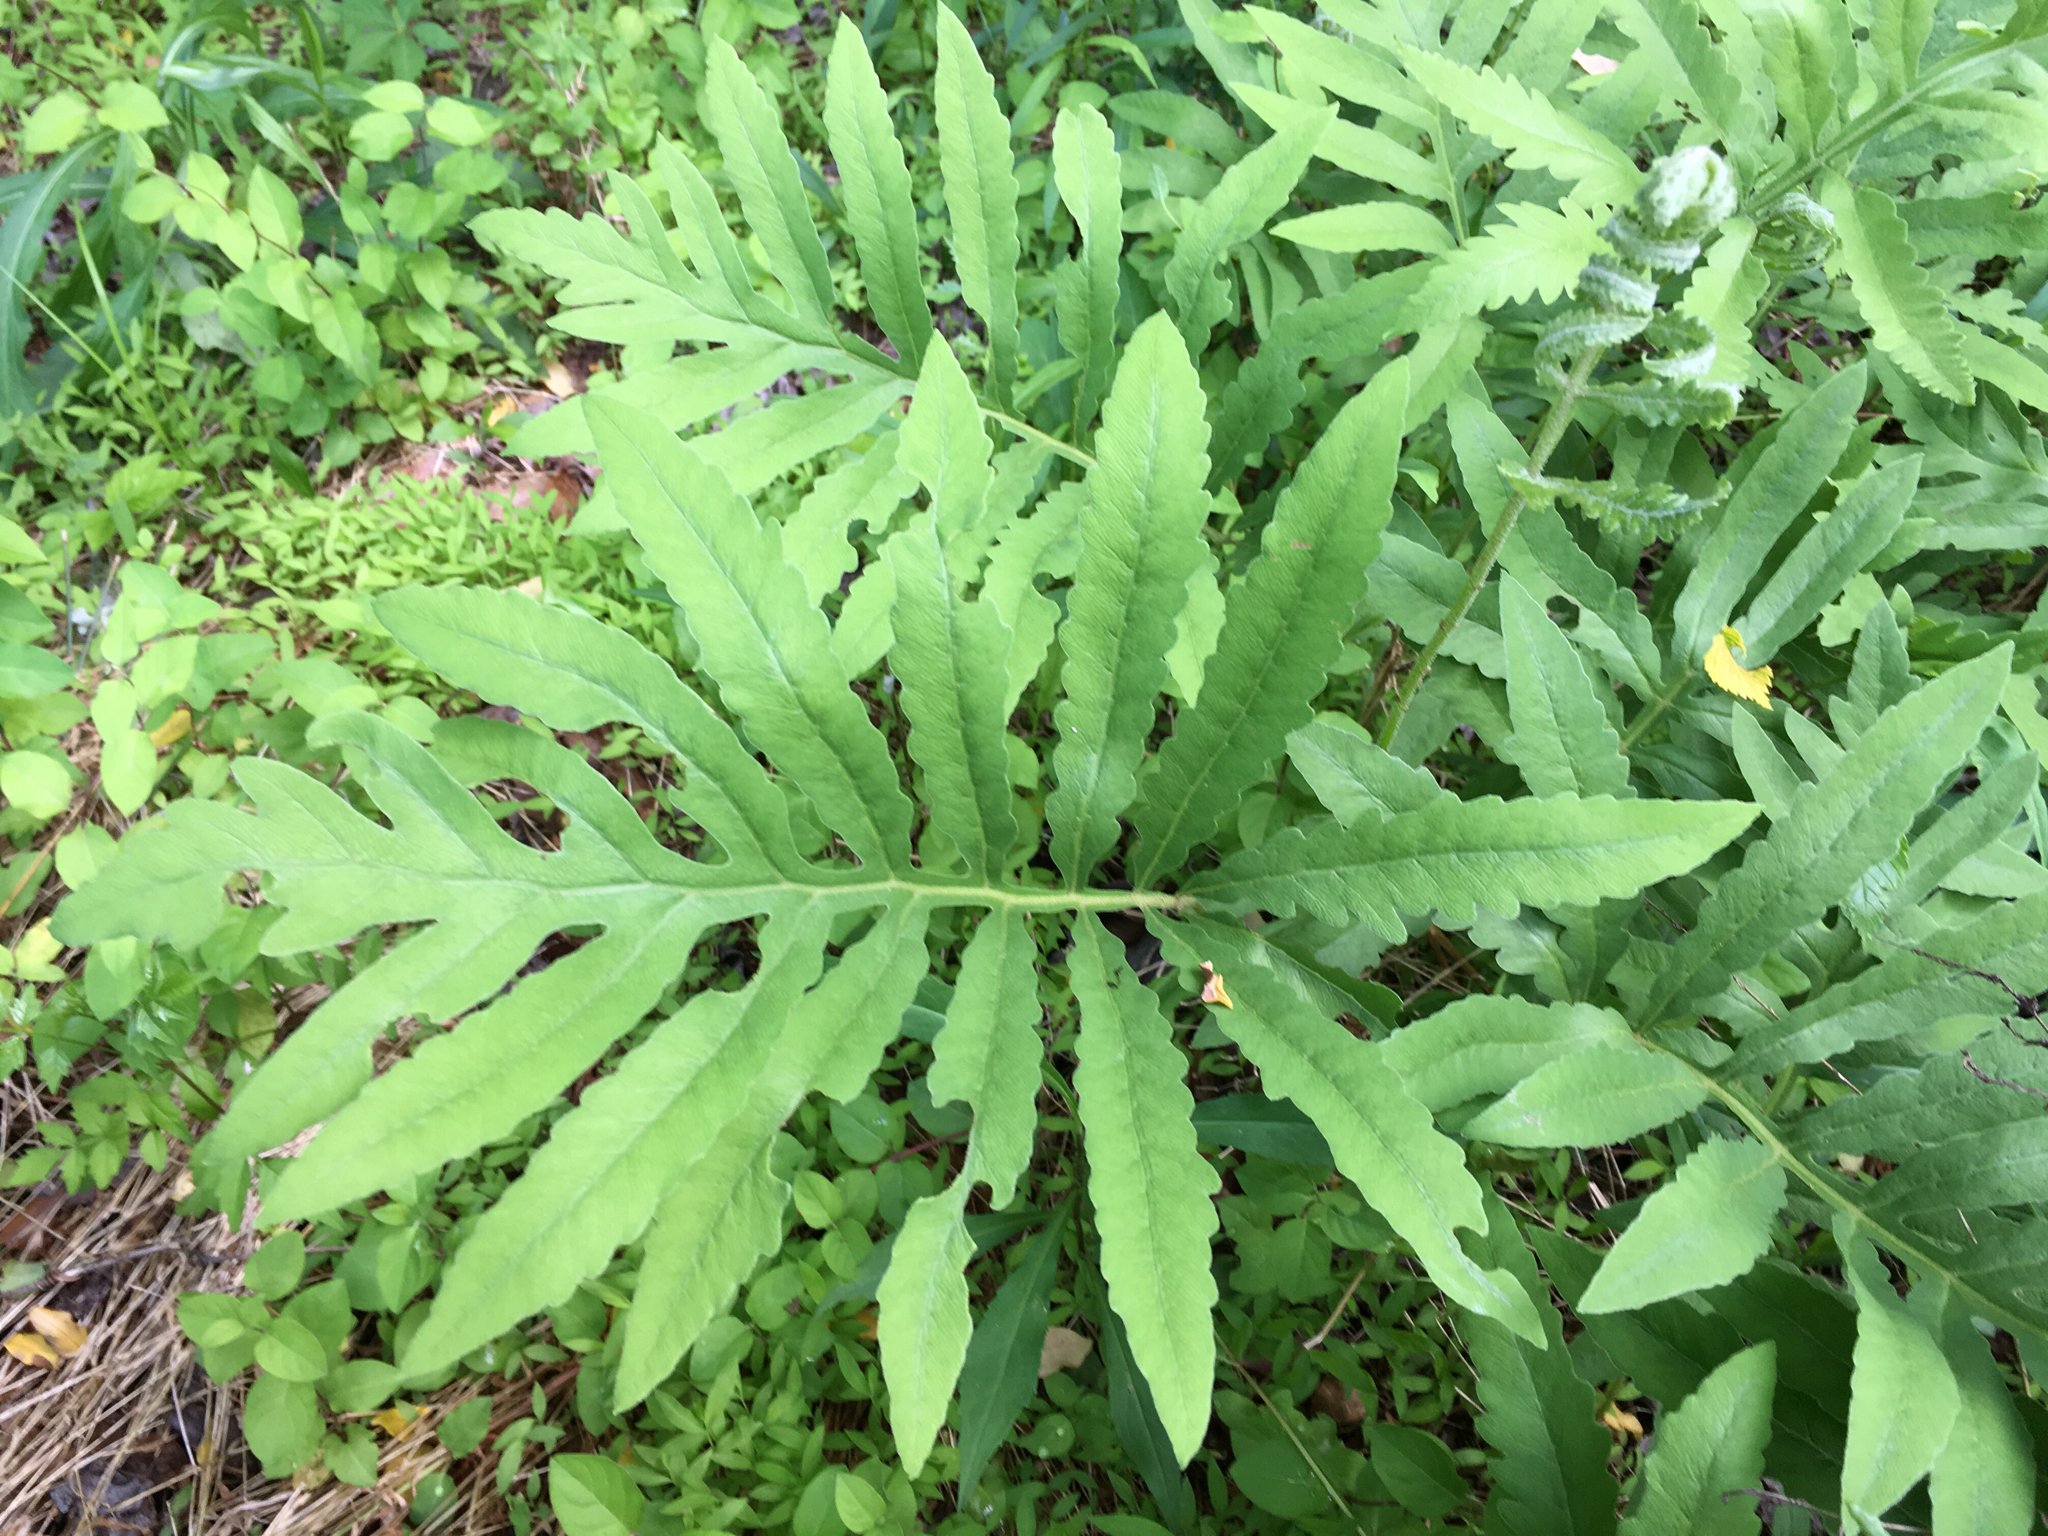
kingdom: Plantae
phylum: Tracheophyta
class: Polypodiopsida
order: Polypodiales
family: Onocleaceae
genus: Onoclea
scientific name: Onoclea sensibilis
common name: Sensitive fern
